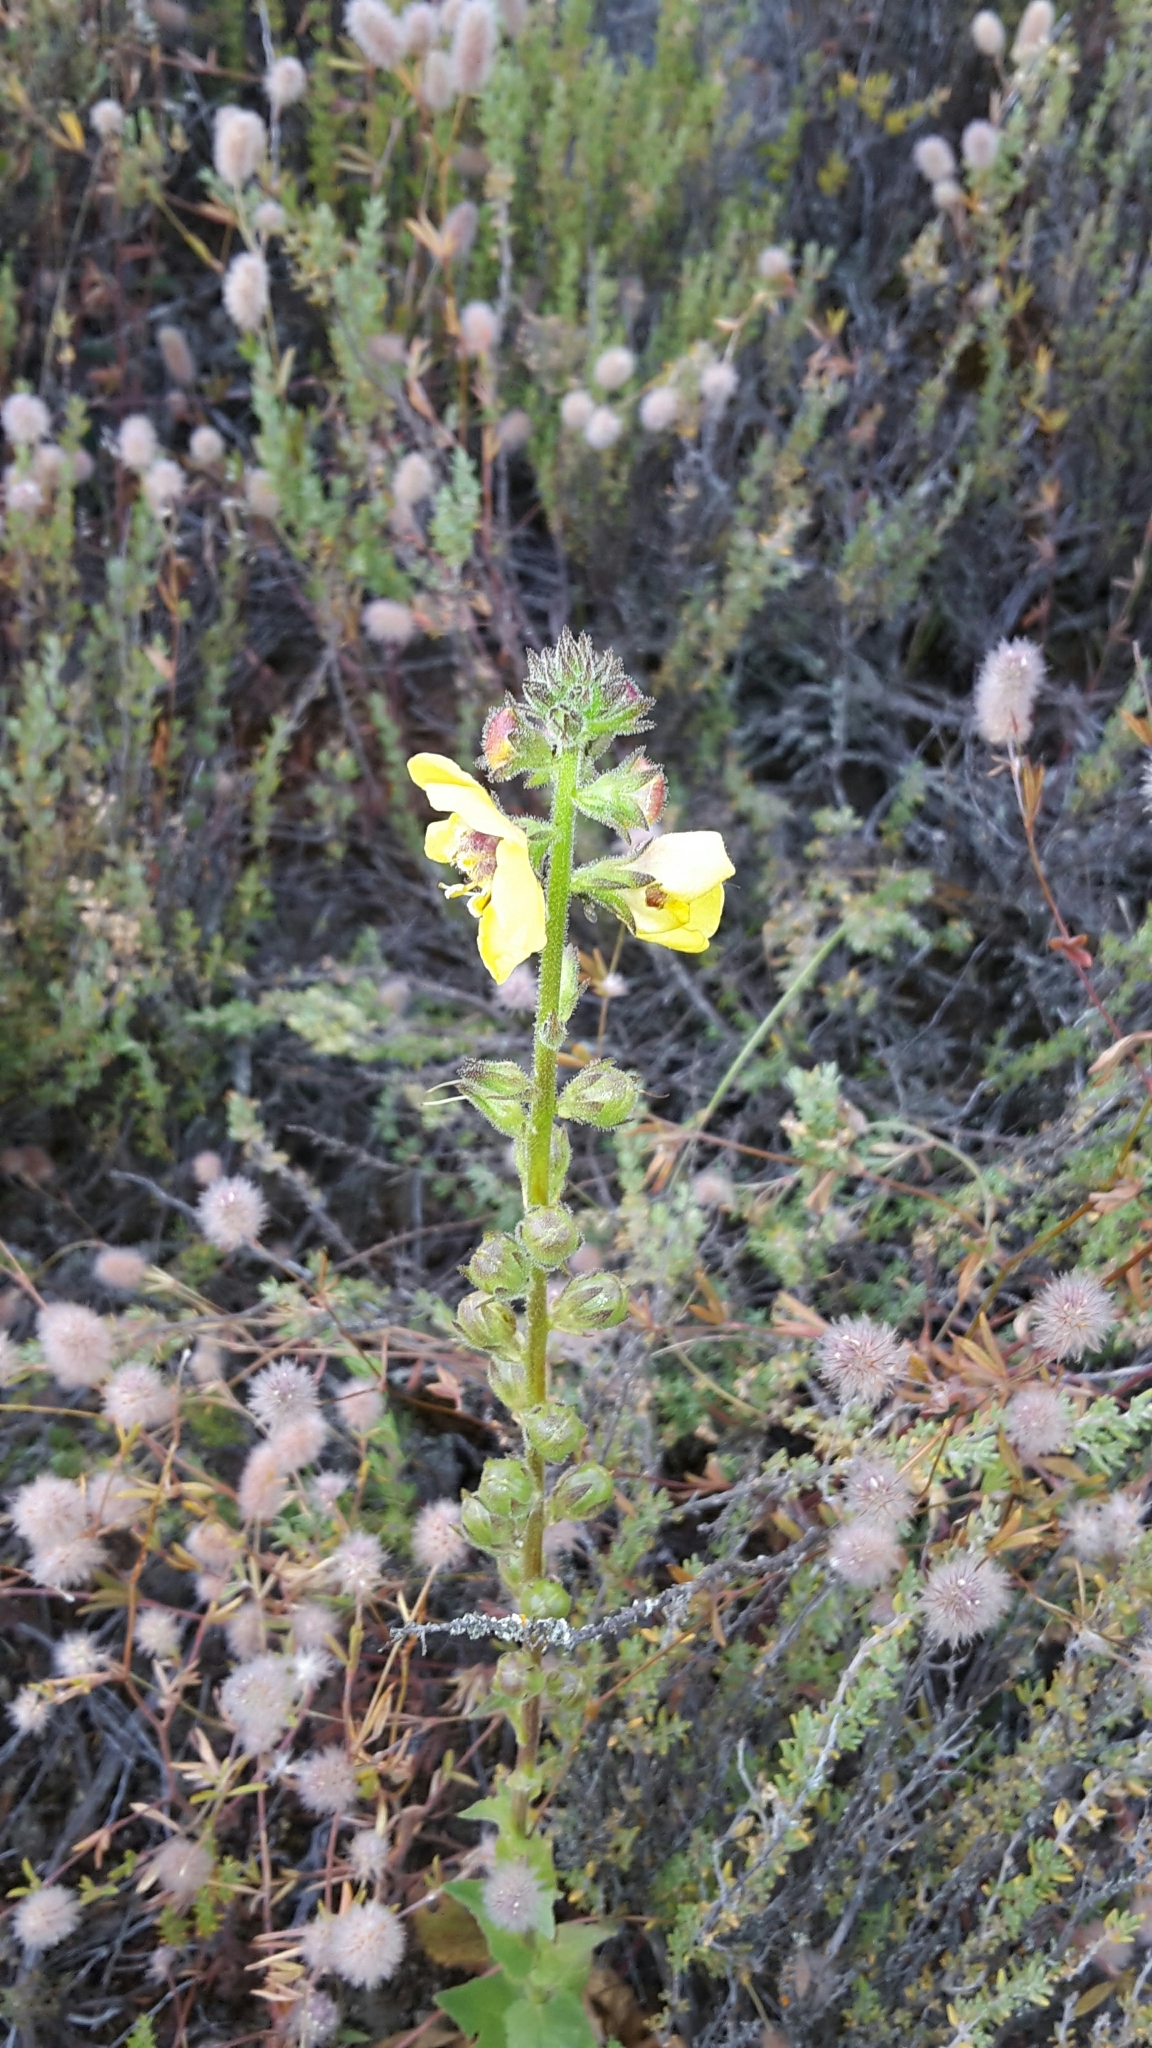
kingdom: Plantae
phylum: Tracheophyta
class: Magnoliopsida
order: Lamiales
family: Scrophulariaceae
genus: Verbascum
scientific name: Verbascum virgatum
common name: Twiggy mullein
